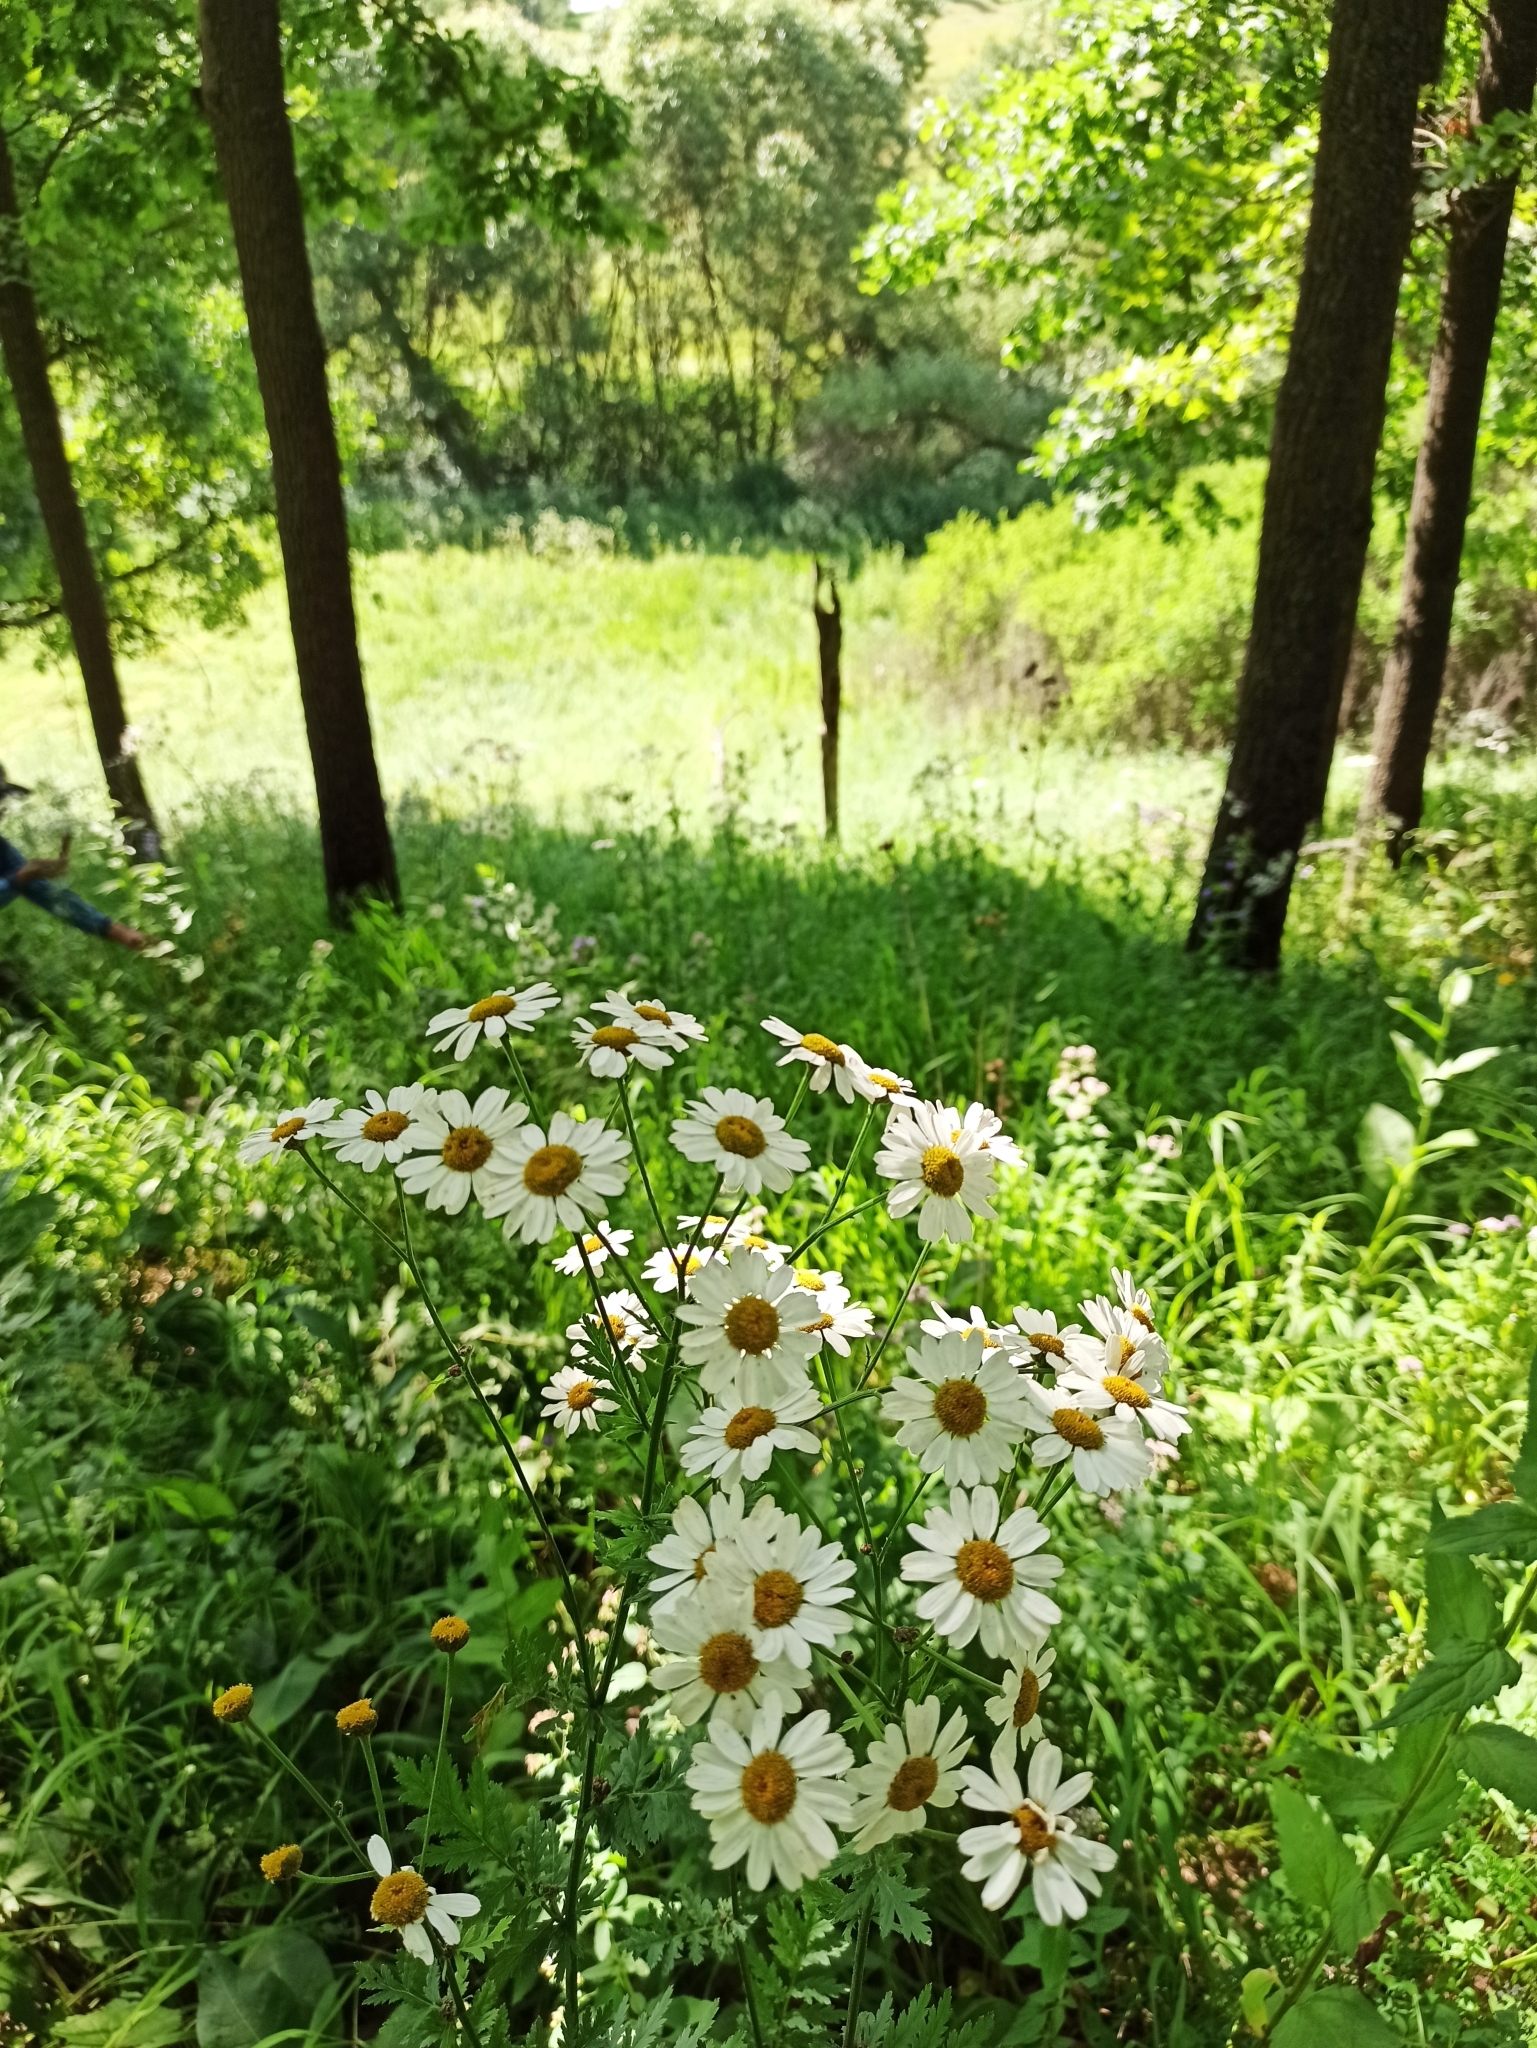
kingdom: Plantae
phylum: Tracheophyta
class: Magnoliopsida
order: Asterales
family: Asteraceae
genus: Tanacetum
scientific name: Tanacetum corymbosum
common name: Scentless feverfew
